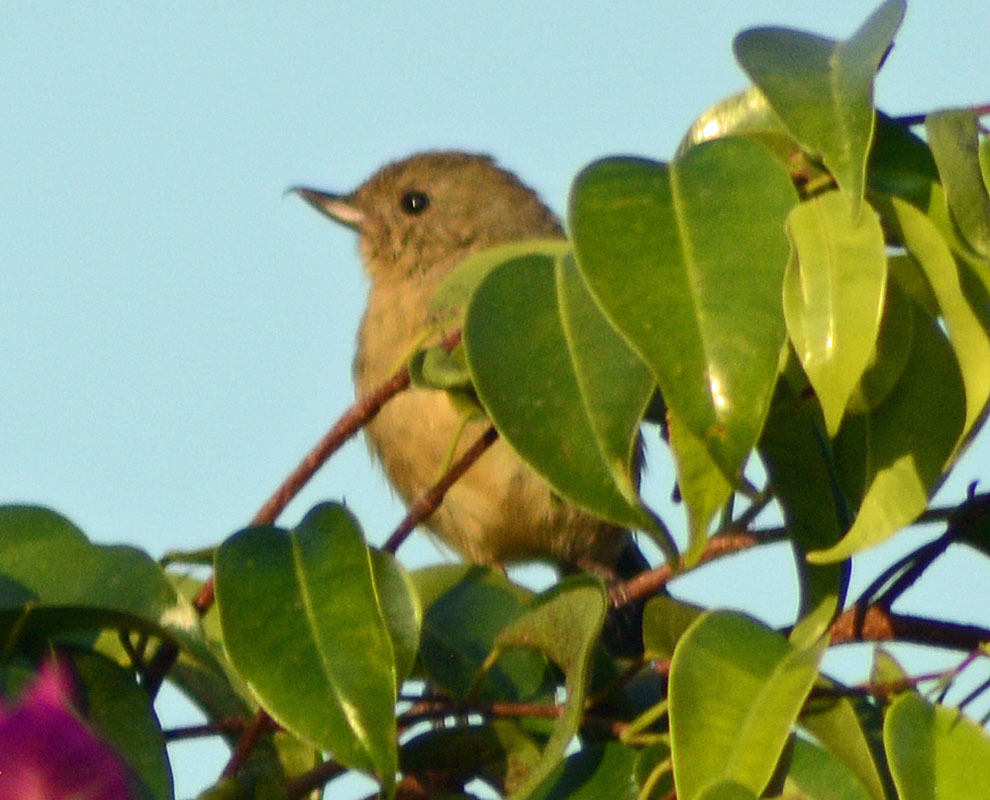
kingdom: Animalia
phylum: Chordata
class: Aves
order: Passeriformes
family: Thraupidae
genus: Diglossa
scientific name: Diglossa baritula
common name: Cinnamon-bellied flowerpiercer
